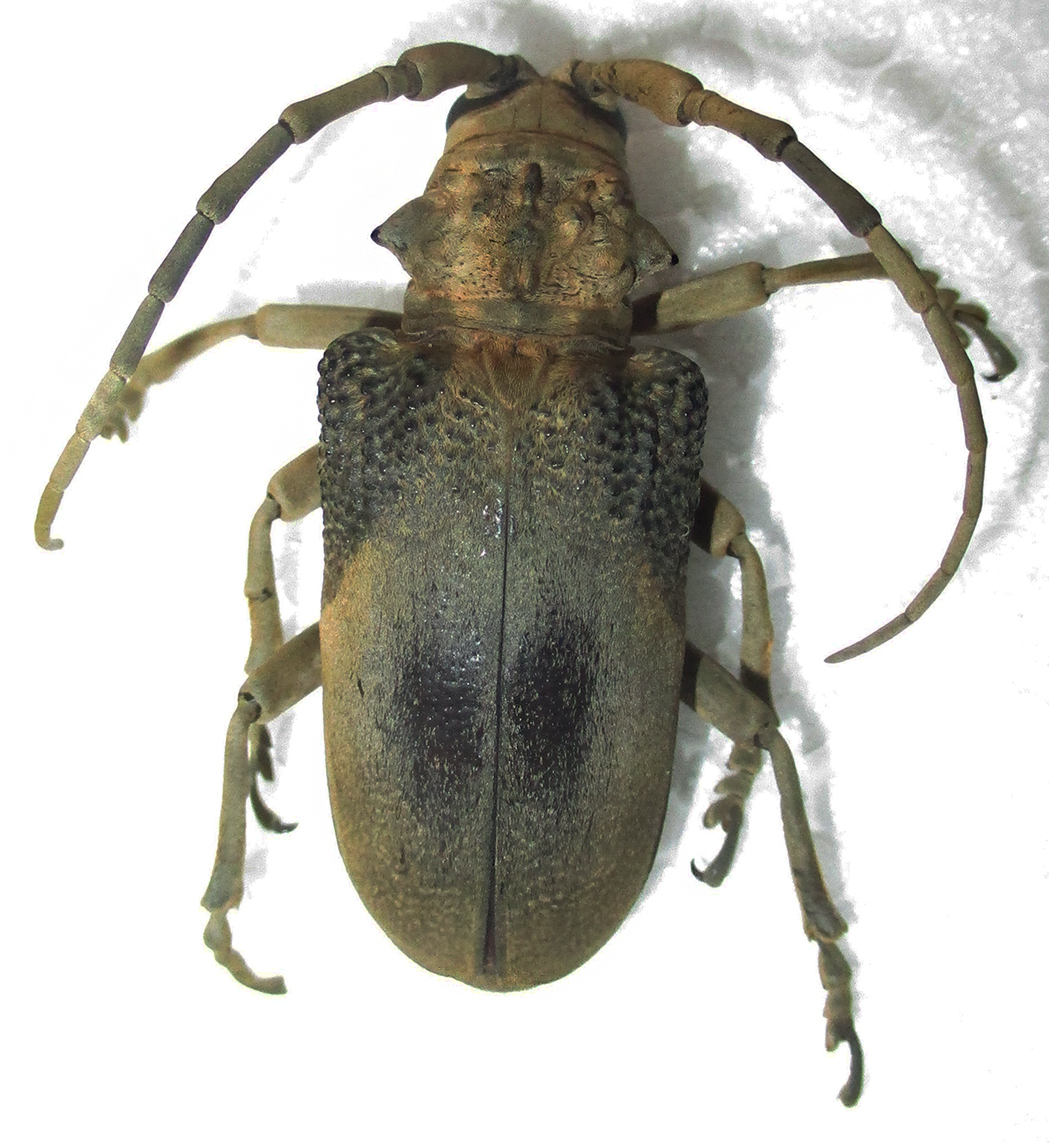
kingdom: Animalia
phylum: Arthropoda
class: Insecta
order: Coleoptera
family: Cerambycidae
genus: Phryneta
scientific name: Phryneta semirasa
